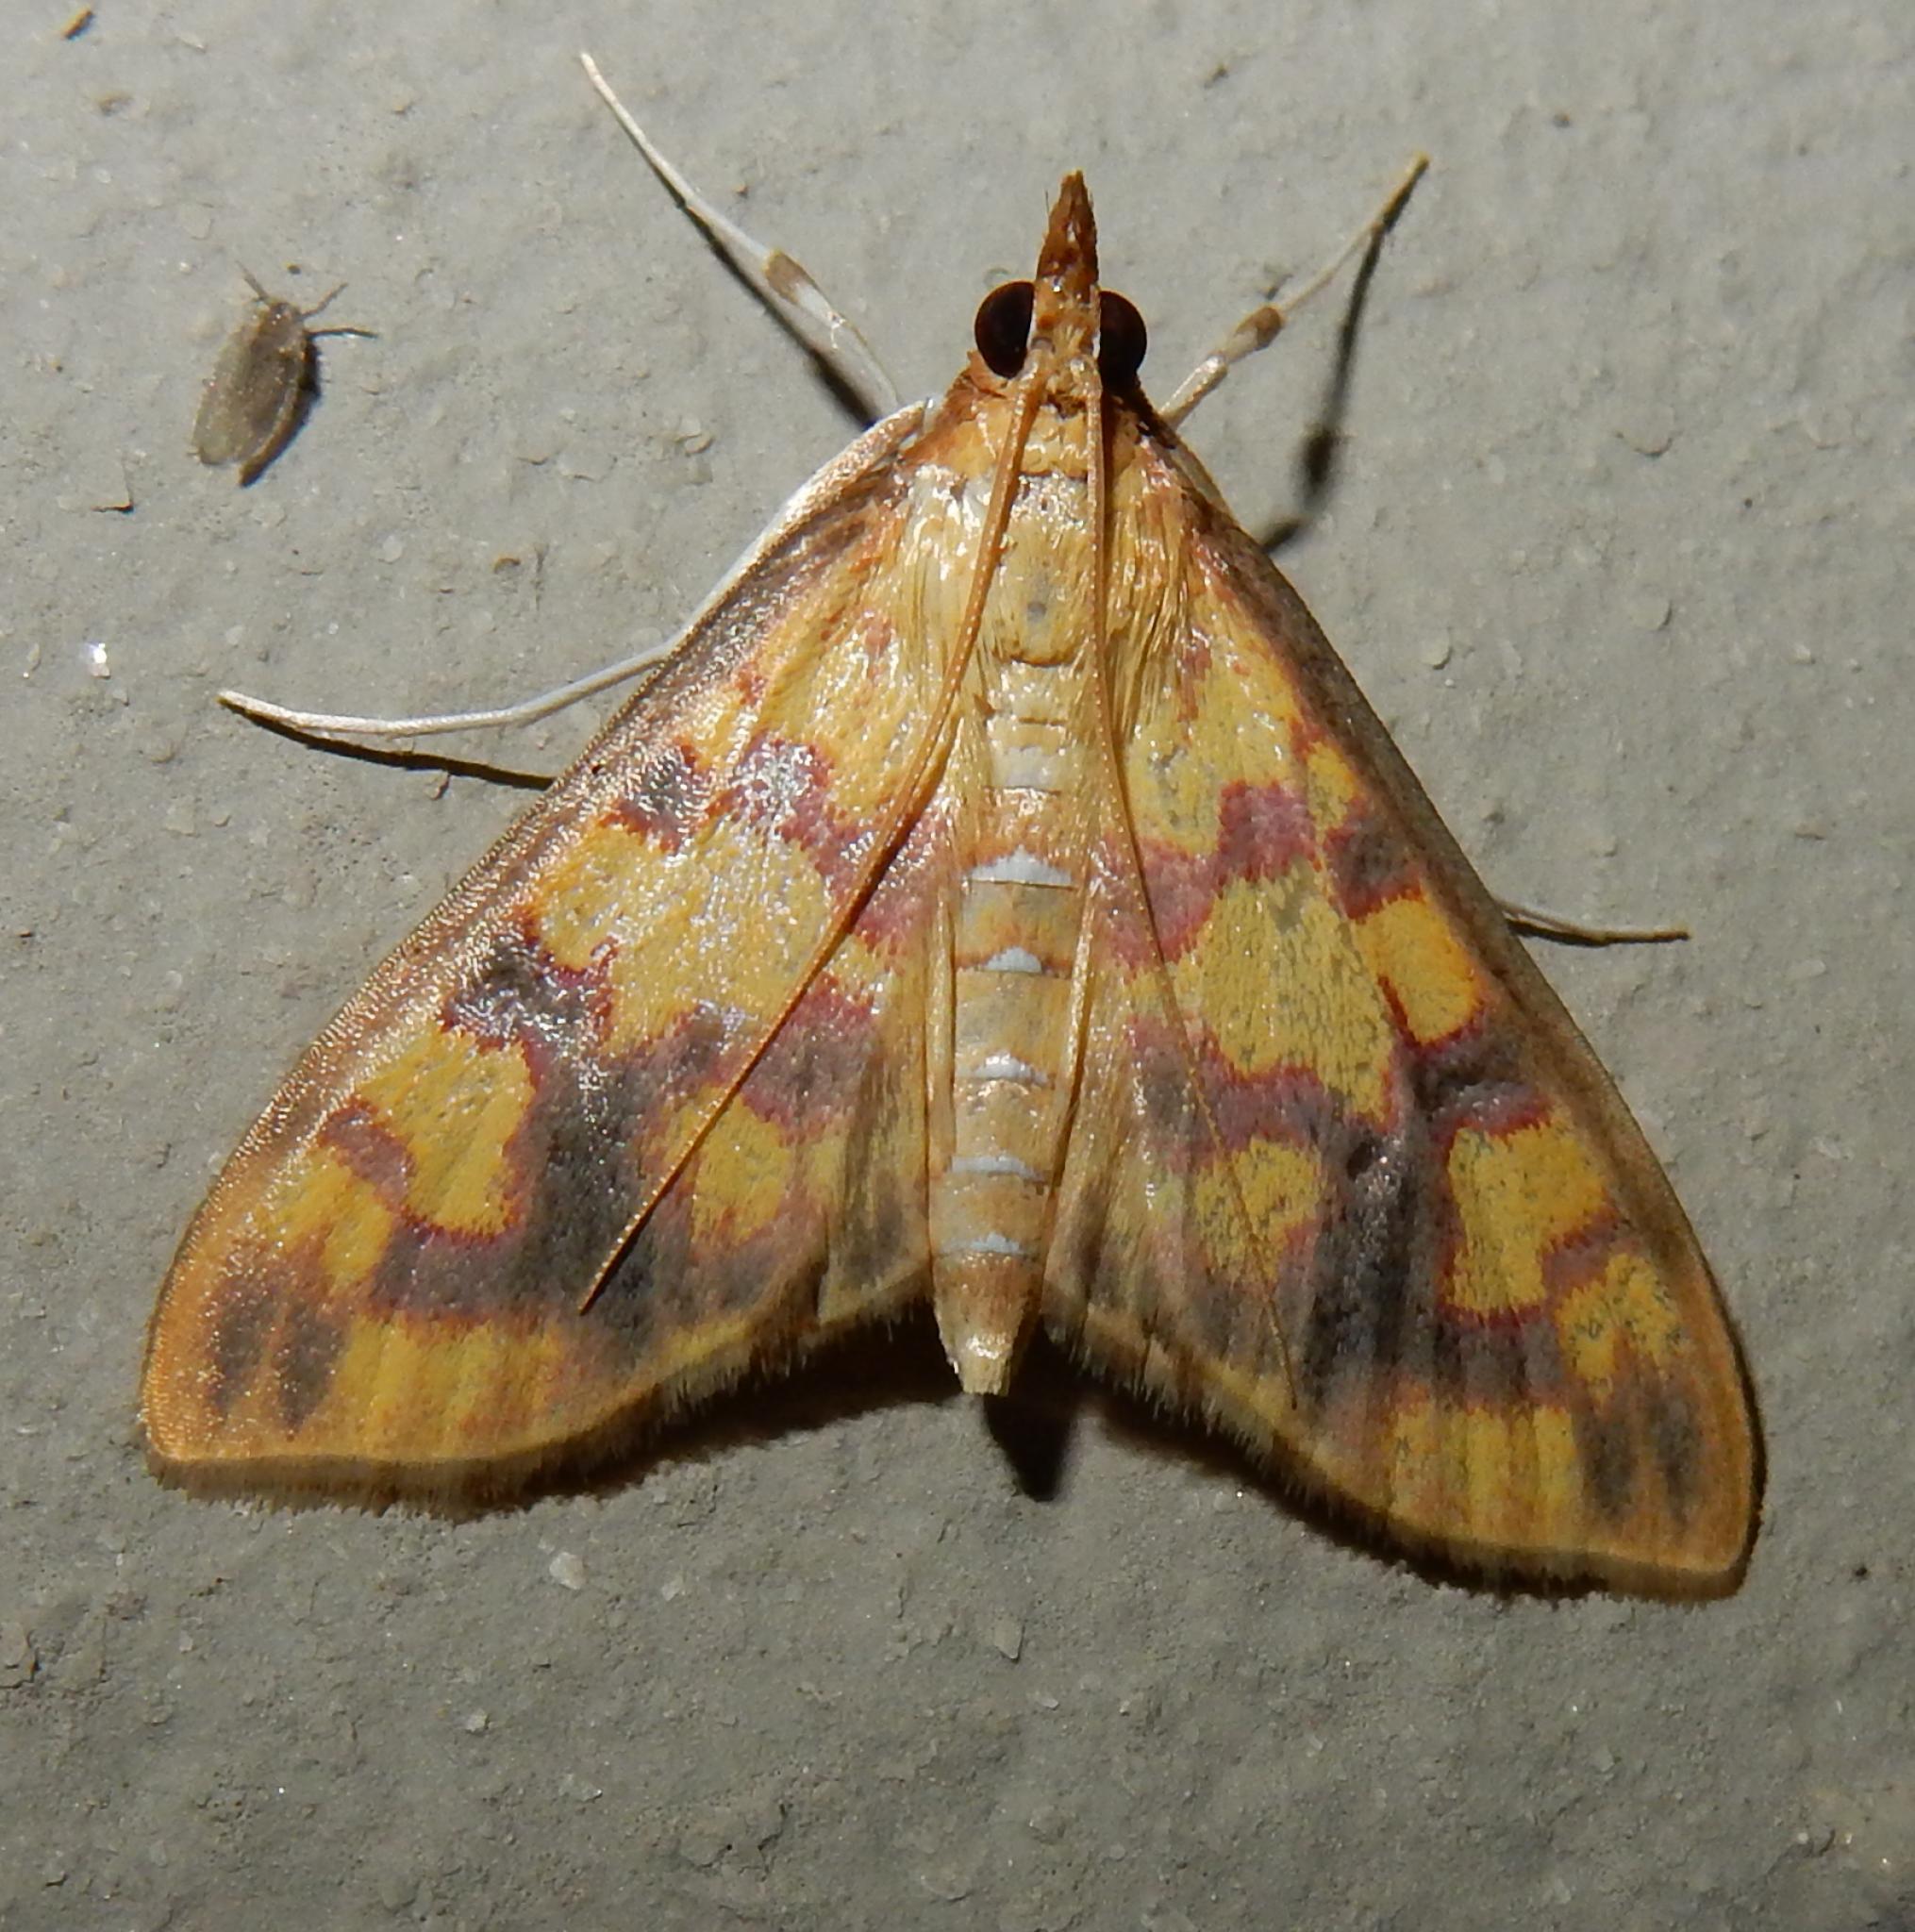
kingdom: Animalia
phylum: Arthropoda
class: Insecta
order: Lepidoptera
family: Crambidae
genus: Ischnurges
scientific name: Ischnurges Stenochora lancinalis
